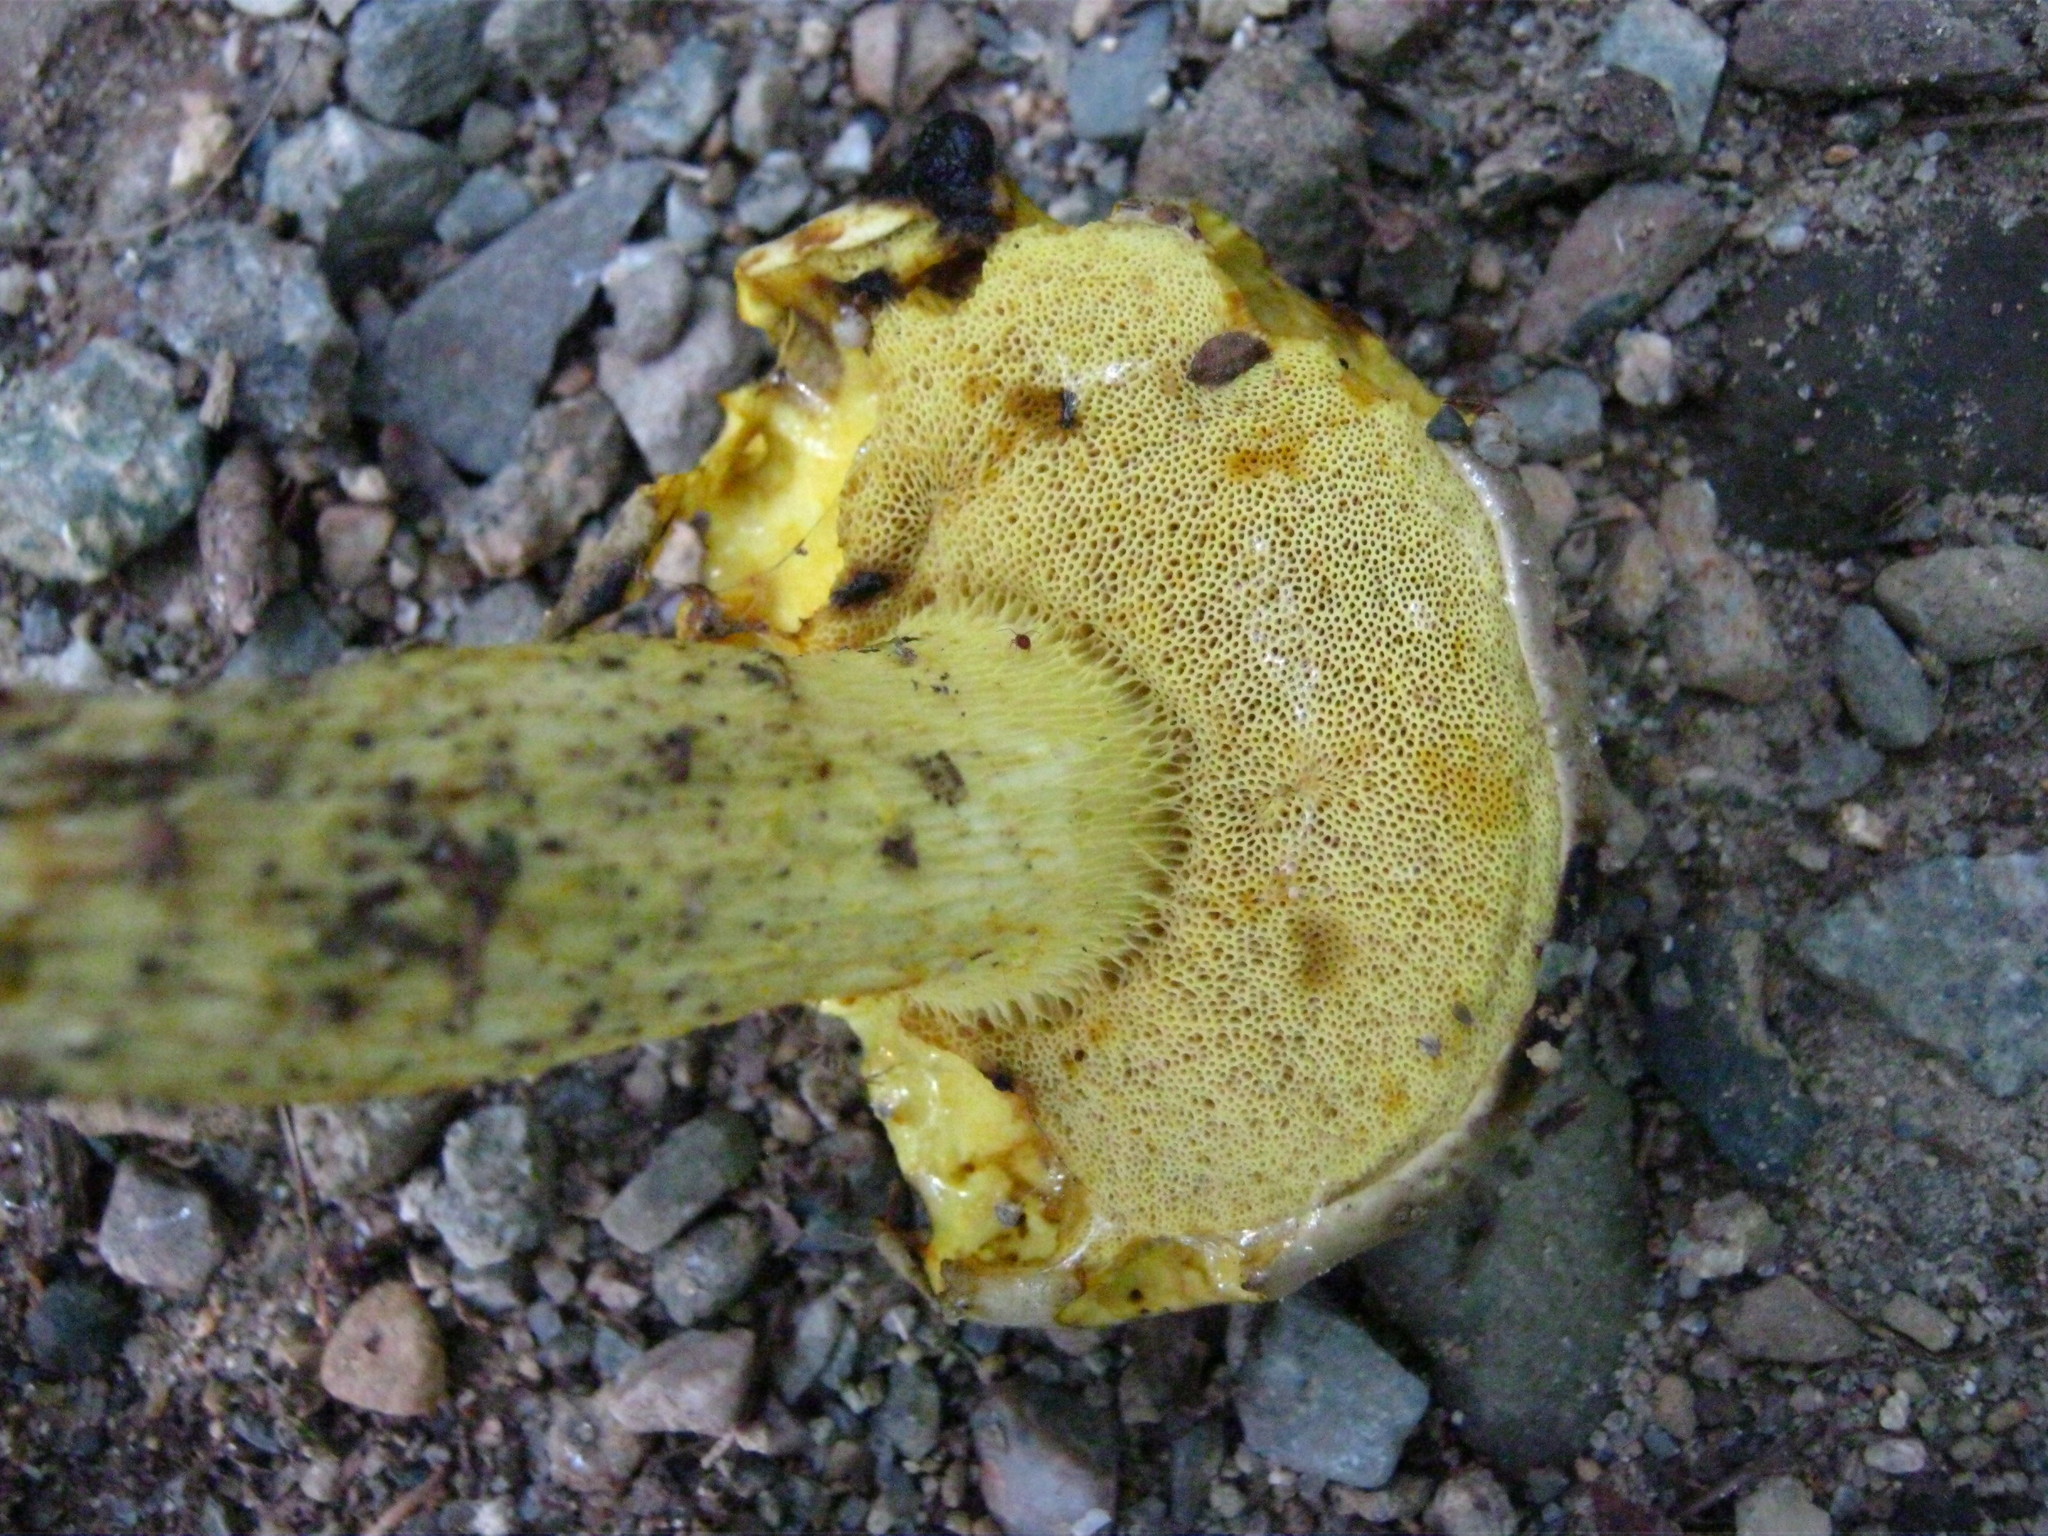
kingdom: Fungi
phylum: Basidiomycota
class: Agaricomycetes
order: Boletales
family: Boletaceae
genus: Retiboletus
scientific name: Retiboletus ornatipes
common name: Ornate-stalked bolete
